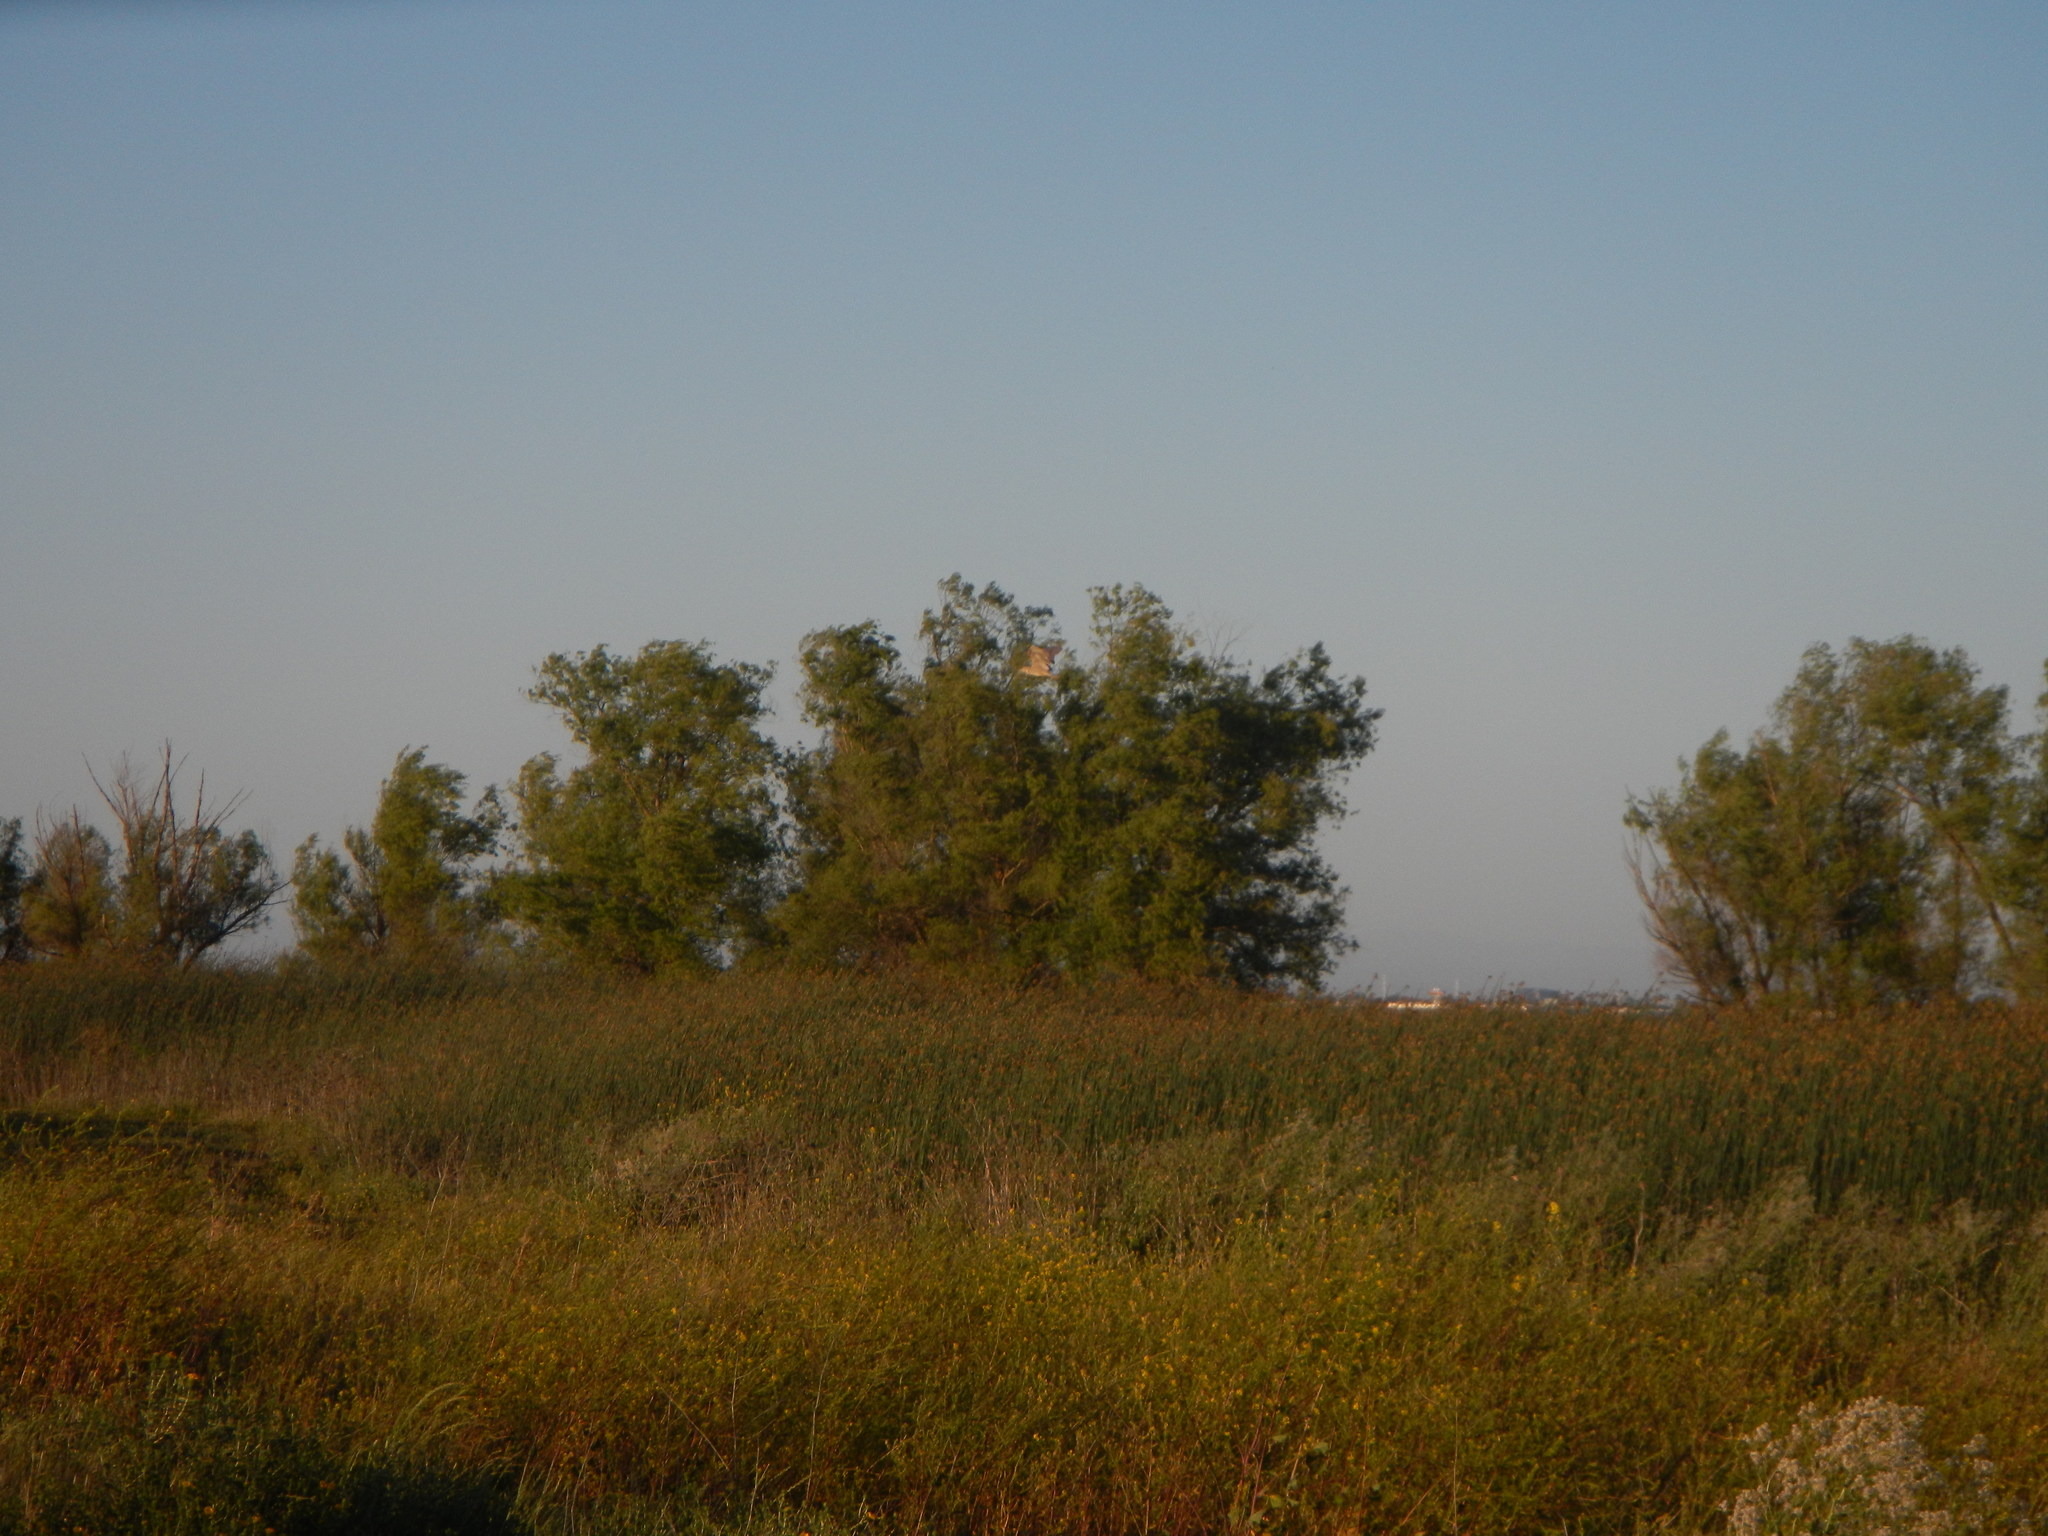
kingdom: Animalia
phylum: Chordata
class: Aves
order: Pelecaniformes
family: Ardeidae
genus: Nycticorax
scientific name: Nycticorax nycticorax
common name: Black-crowned night heron
